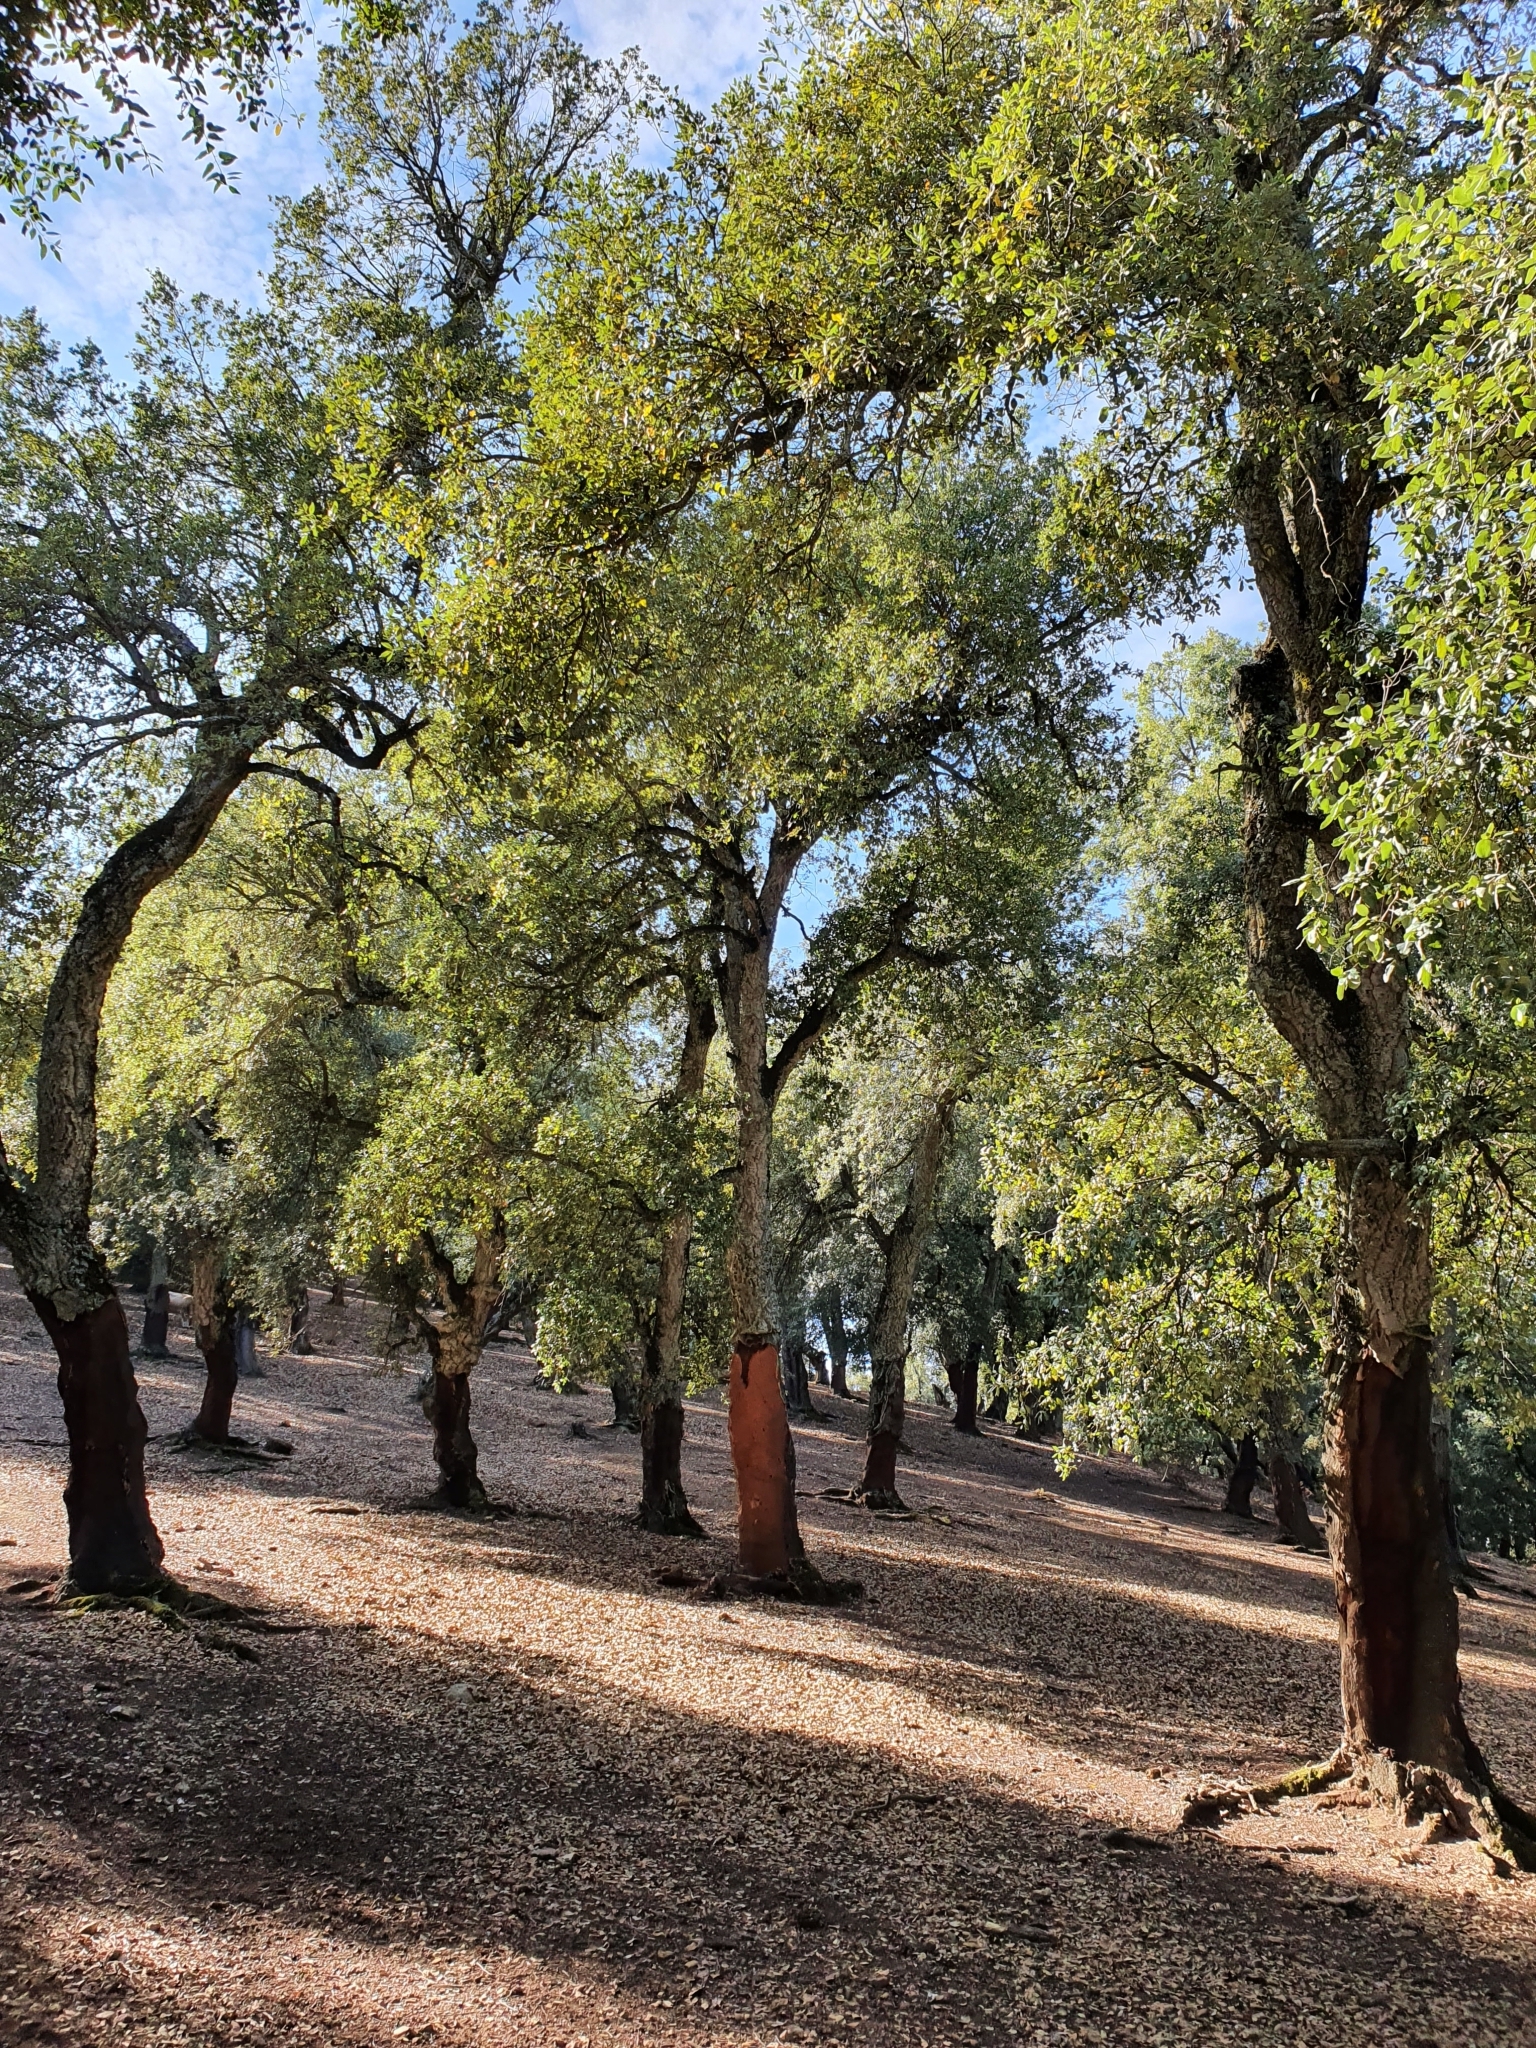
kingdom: Plantae
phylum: Tracheophyta
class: Magnoliopsida
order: Fagales
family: Fagaceae
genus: Quercus
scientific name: Quercus suber
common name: Cork oak
